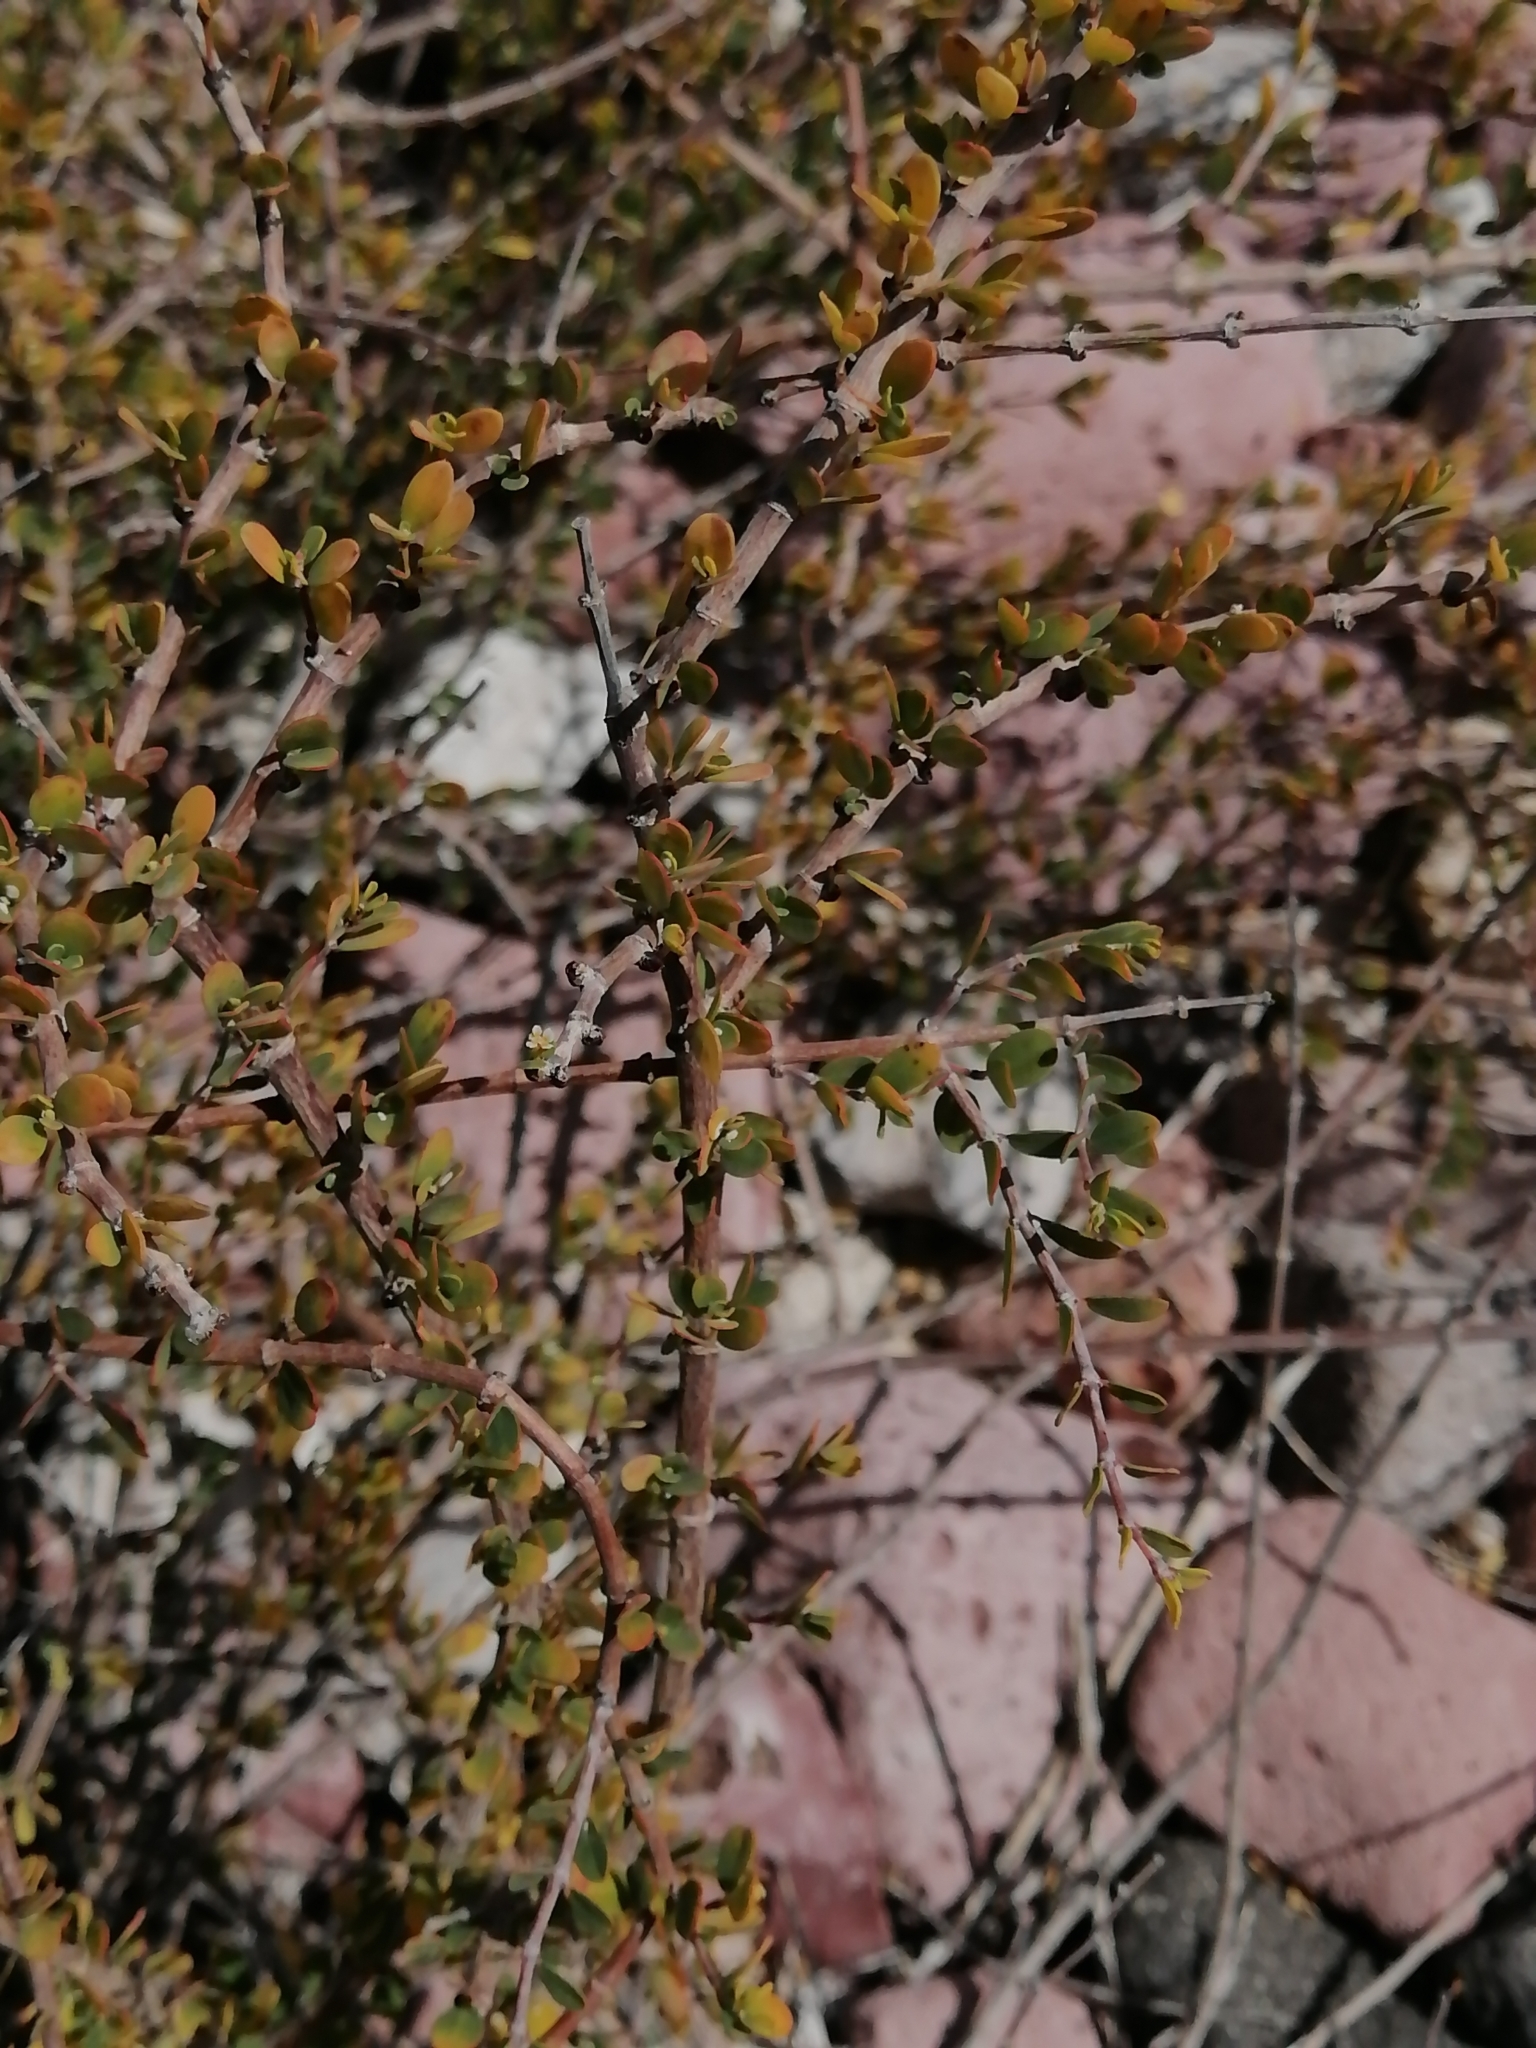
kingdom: Plantae
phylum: Tracheophyta
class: Magnoliopsida
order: Malpighiales
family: Euphorbiaceae
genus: Euphorbia
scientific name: Euphorbia magdalenae
